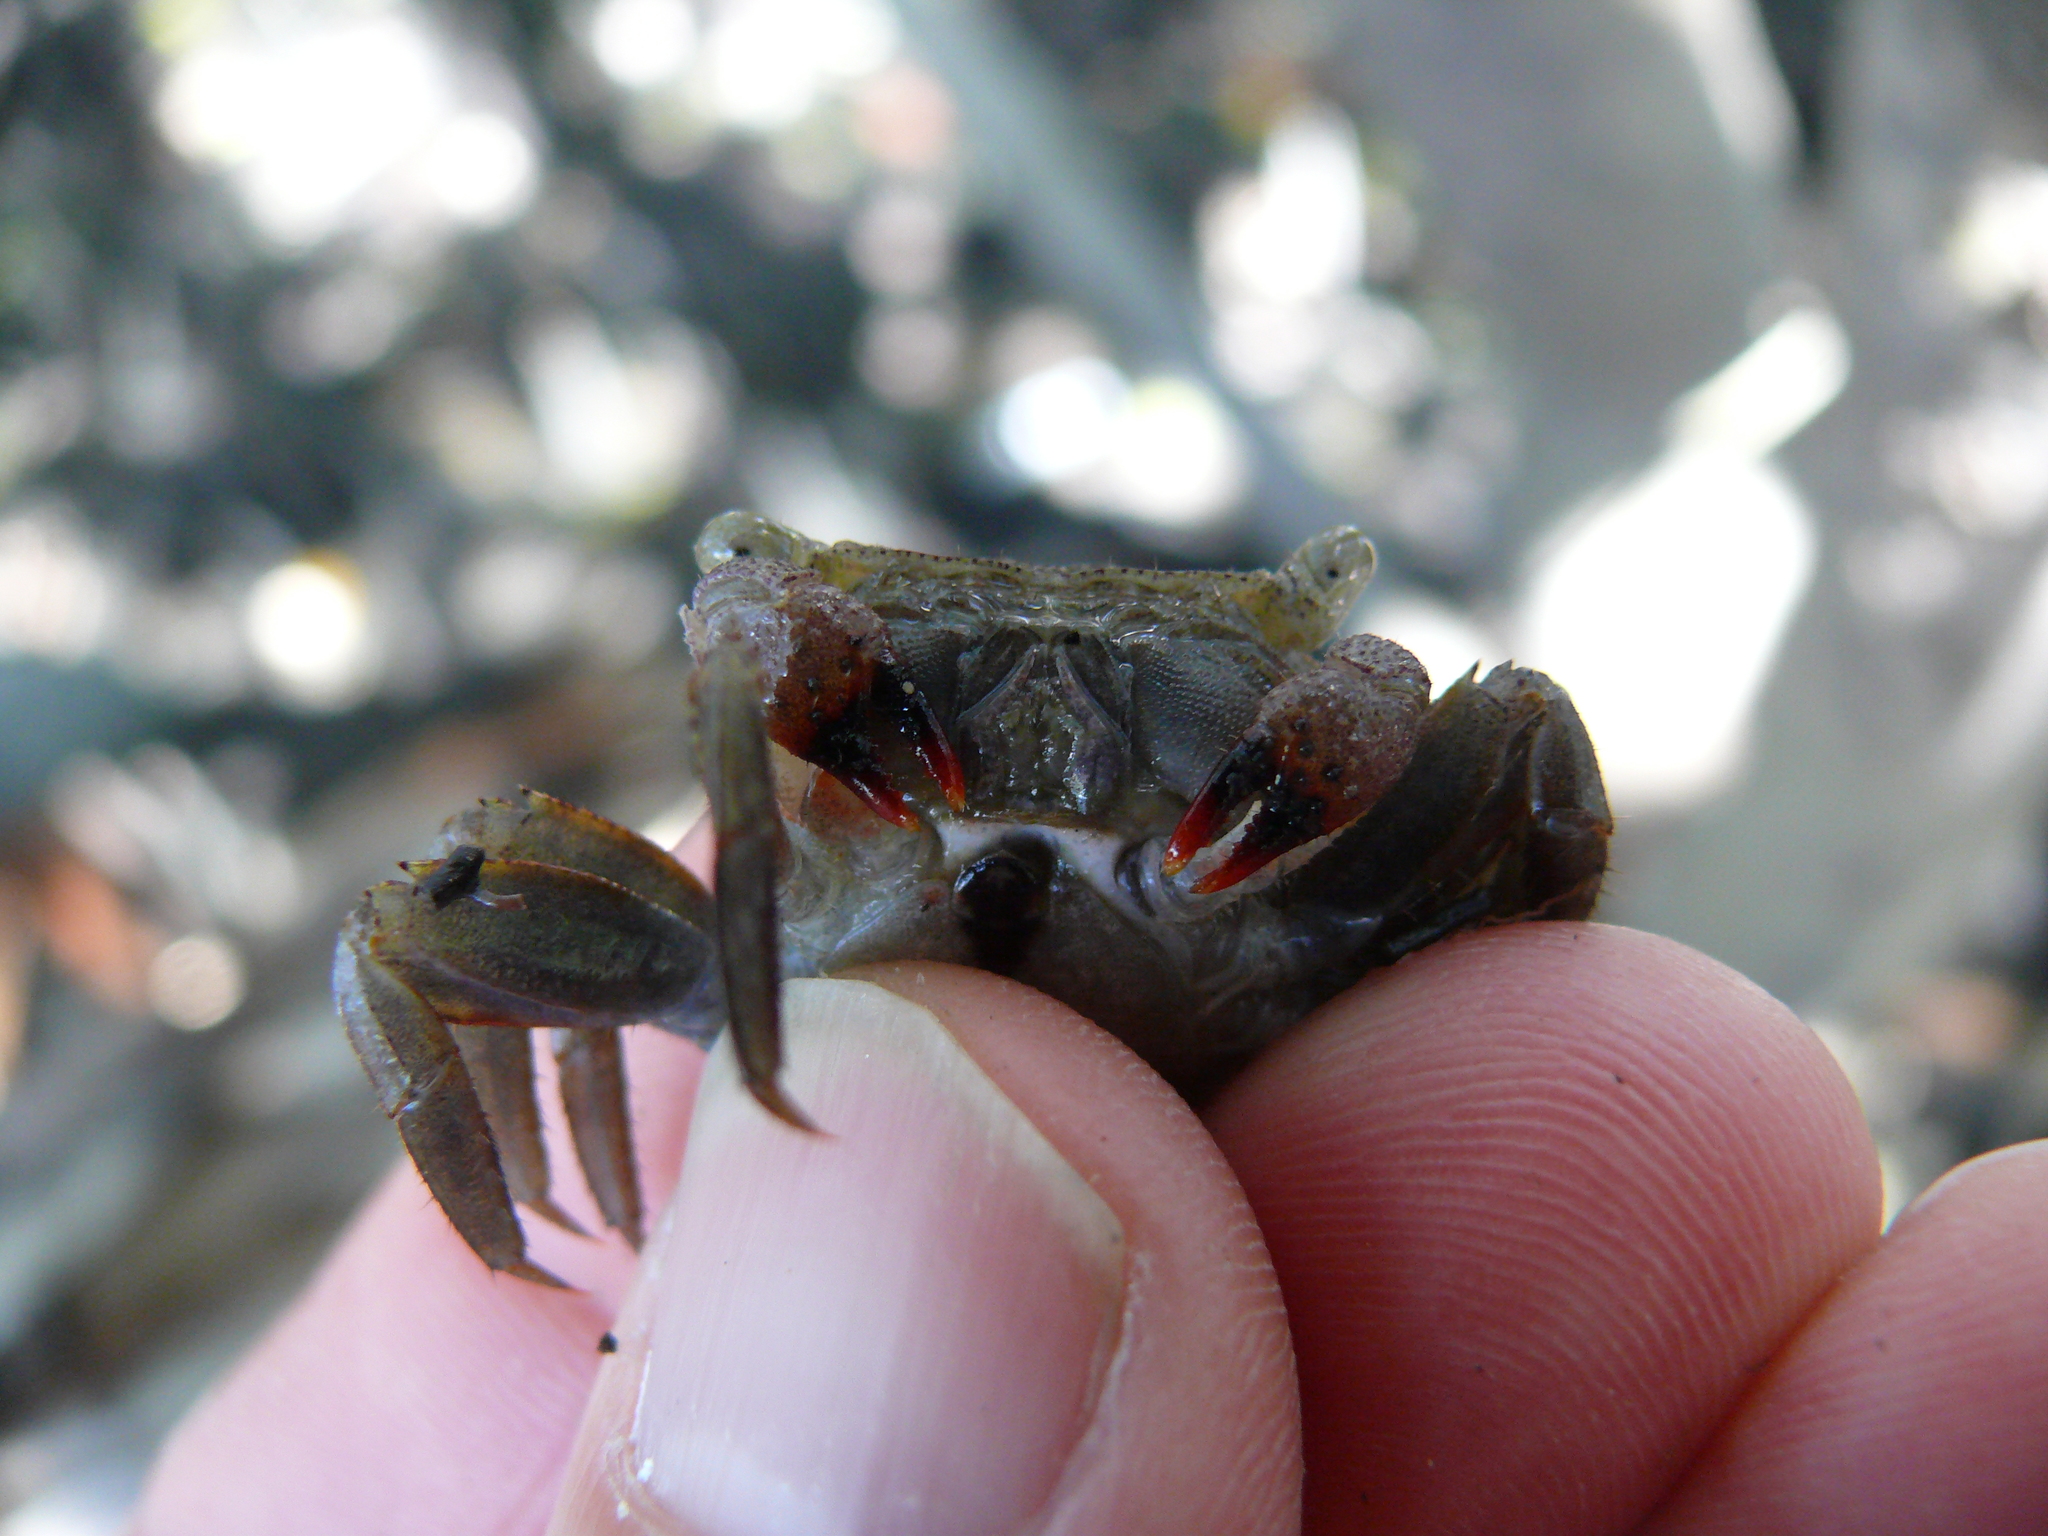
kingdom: Animalia
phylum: Arthropoda
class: Malacostraca
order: Decapoda
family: Sesarmidae
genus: Aratus
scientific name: Aratus pisonii
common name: Mangrove crab
